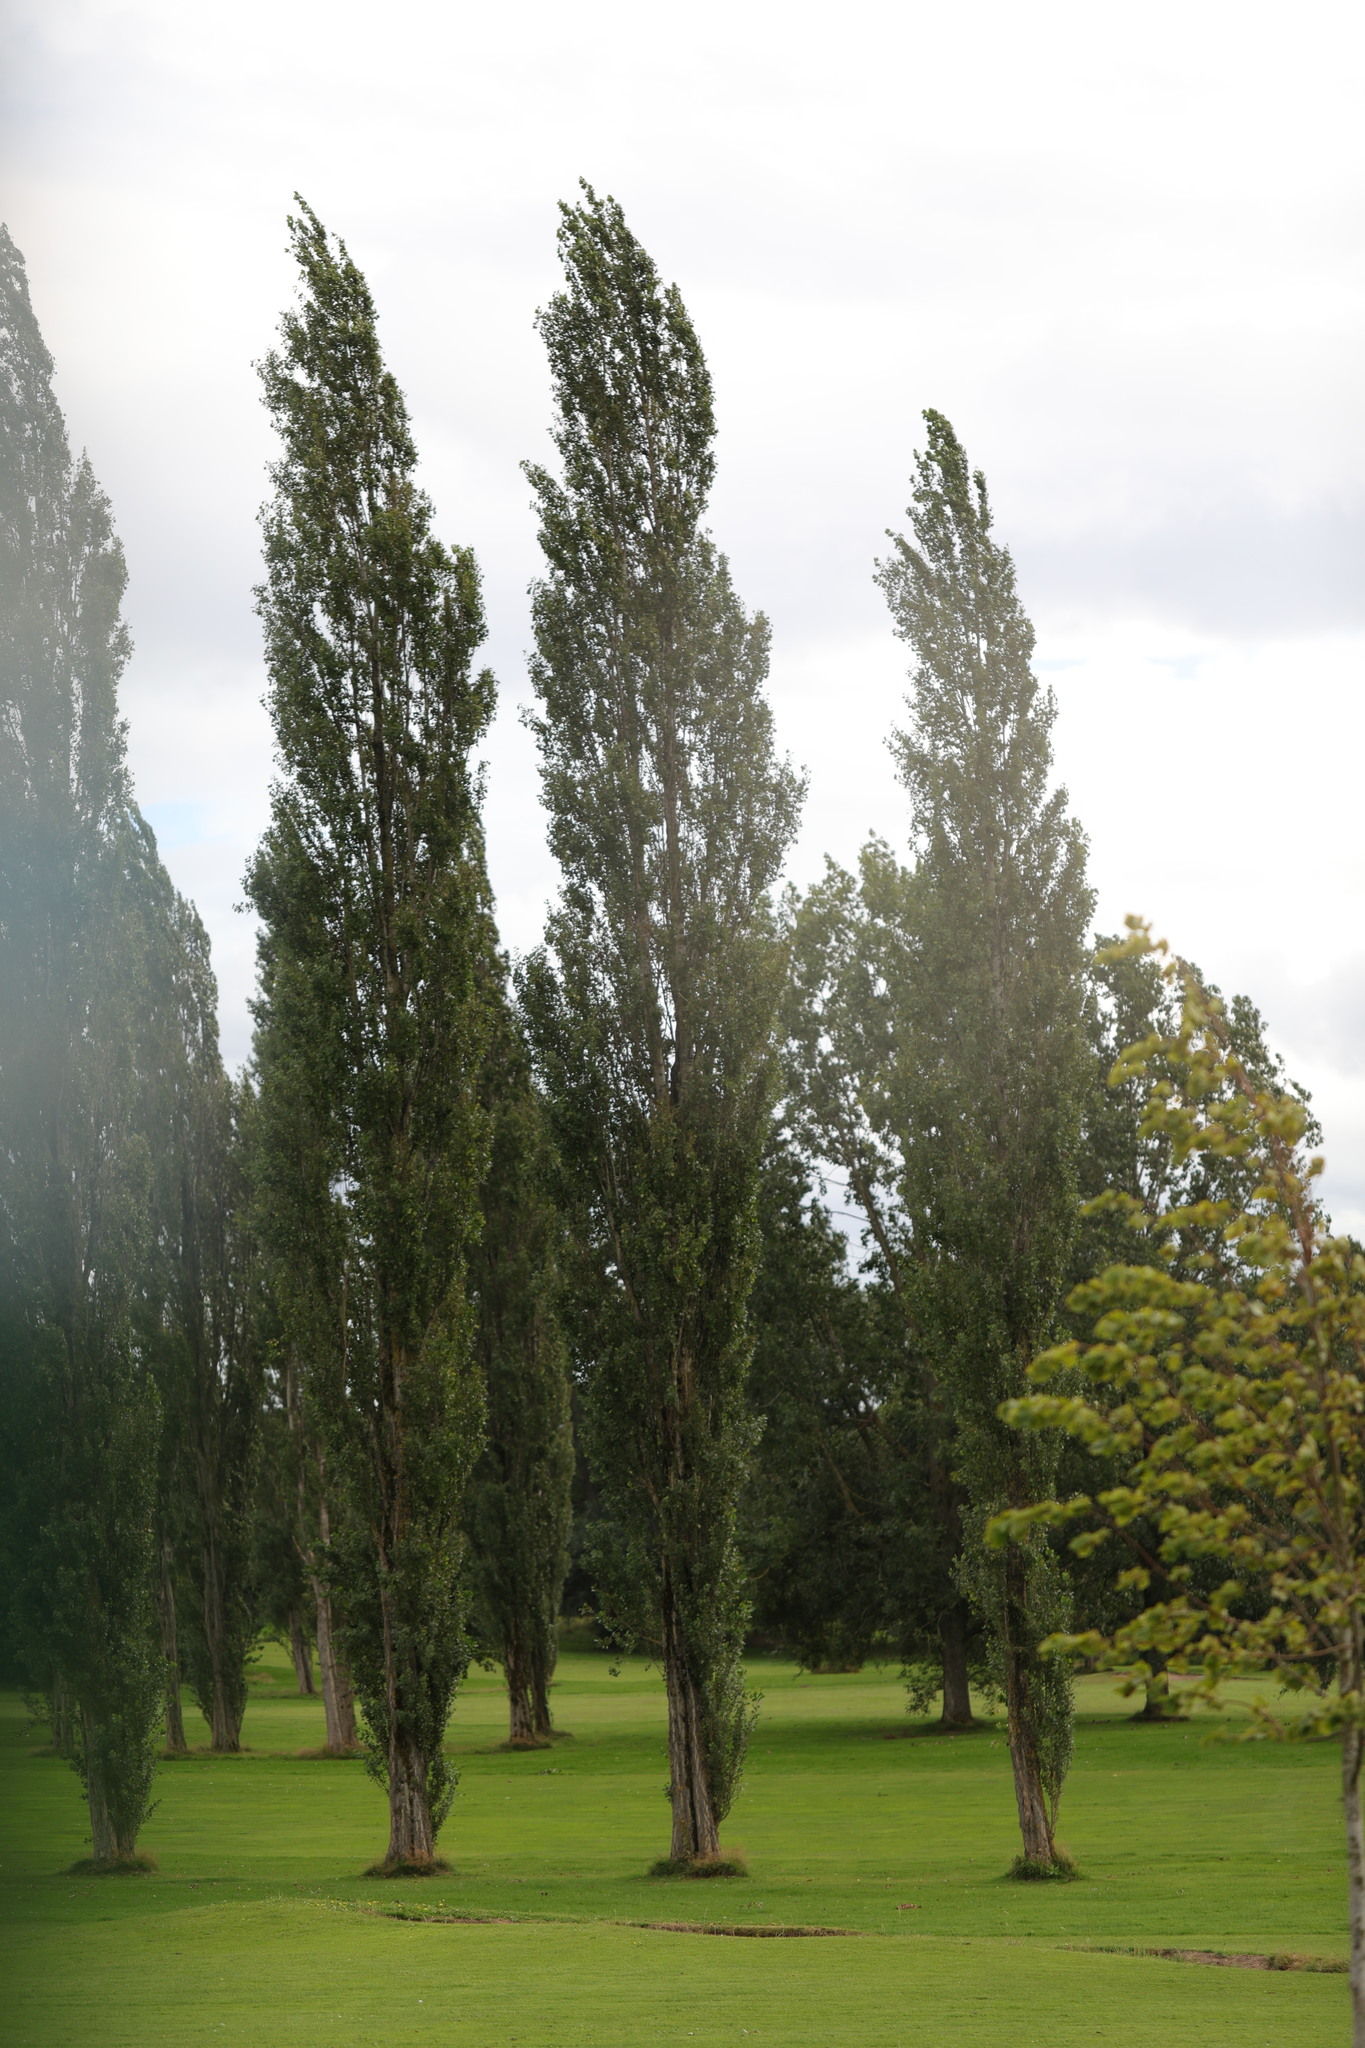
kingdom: Plantae
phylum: Tracheophyta
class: Magnoliopsida
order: Malpighiales
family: Salicaceae
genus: Populus
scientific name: Populus nigra
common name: Black poplar
